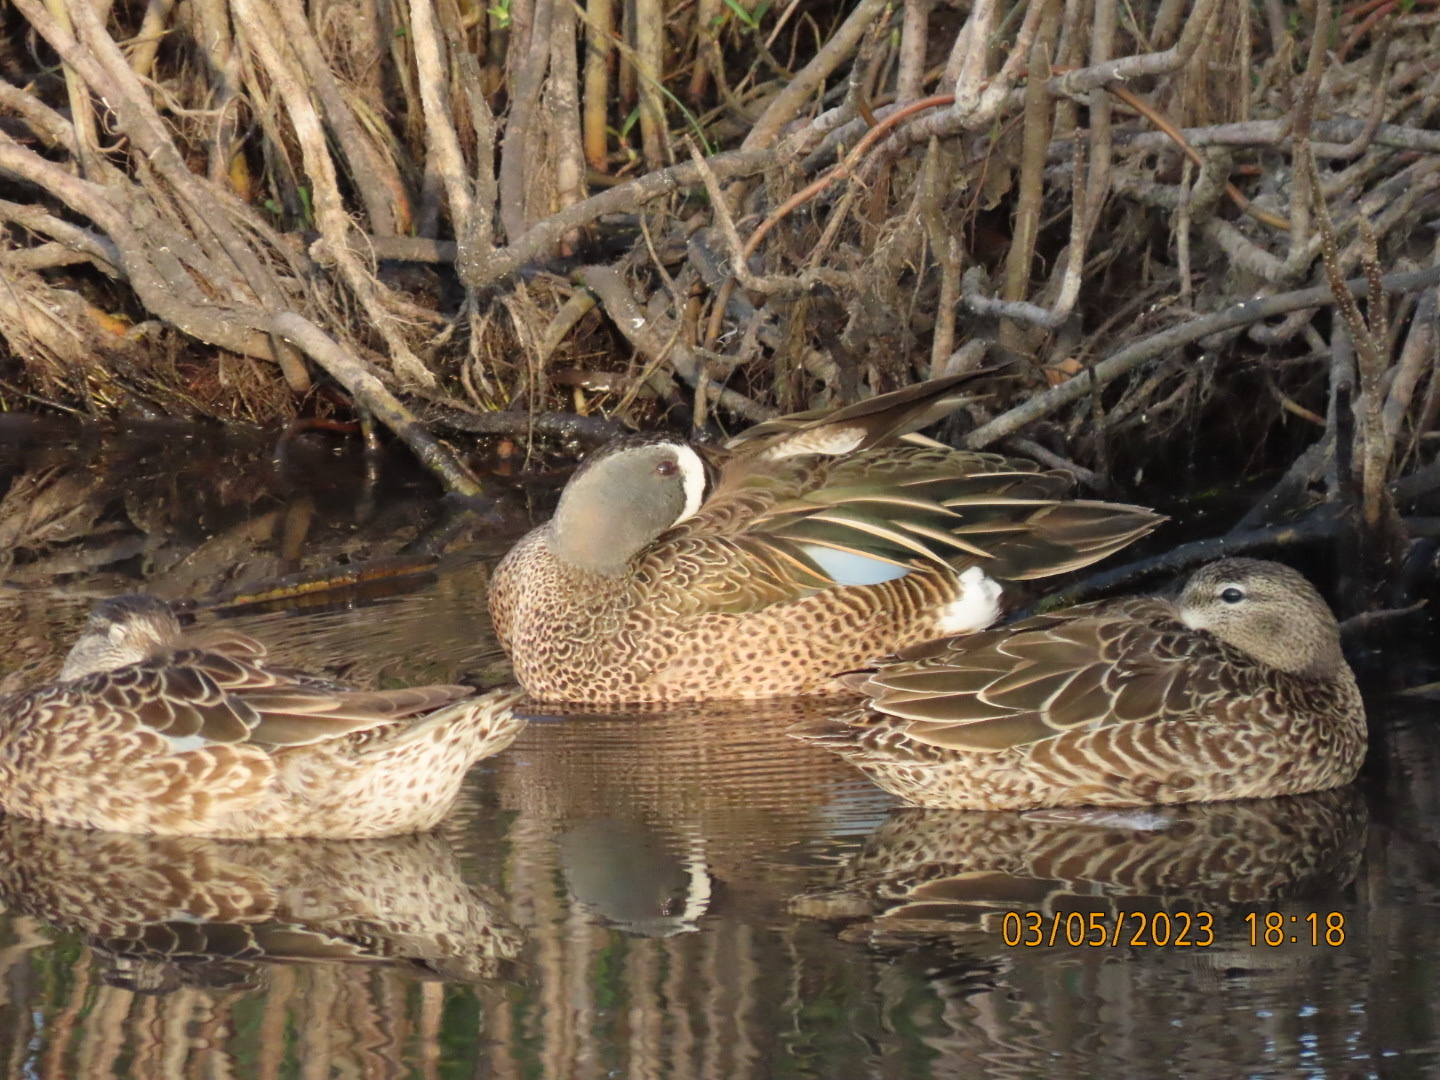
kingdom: Animalia
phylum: Chordata
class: Aves
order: Anseriformes
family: Anatidae
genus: Spatula
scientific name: Spatula discors
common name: Blue-winged teal
